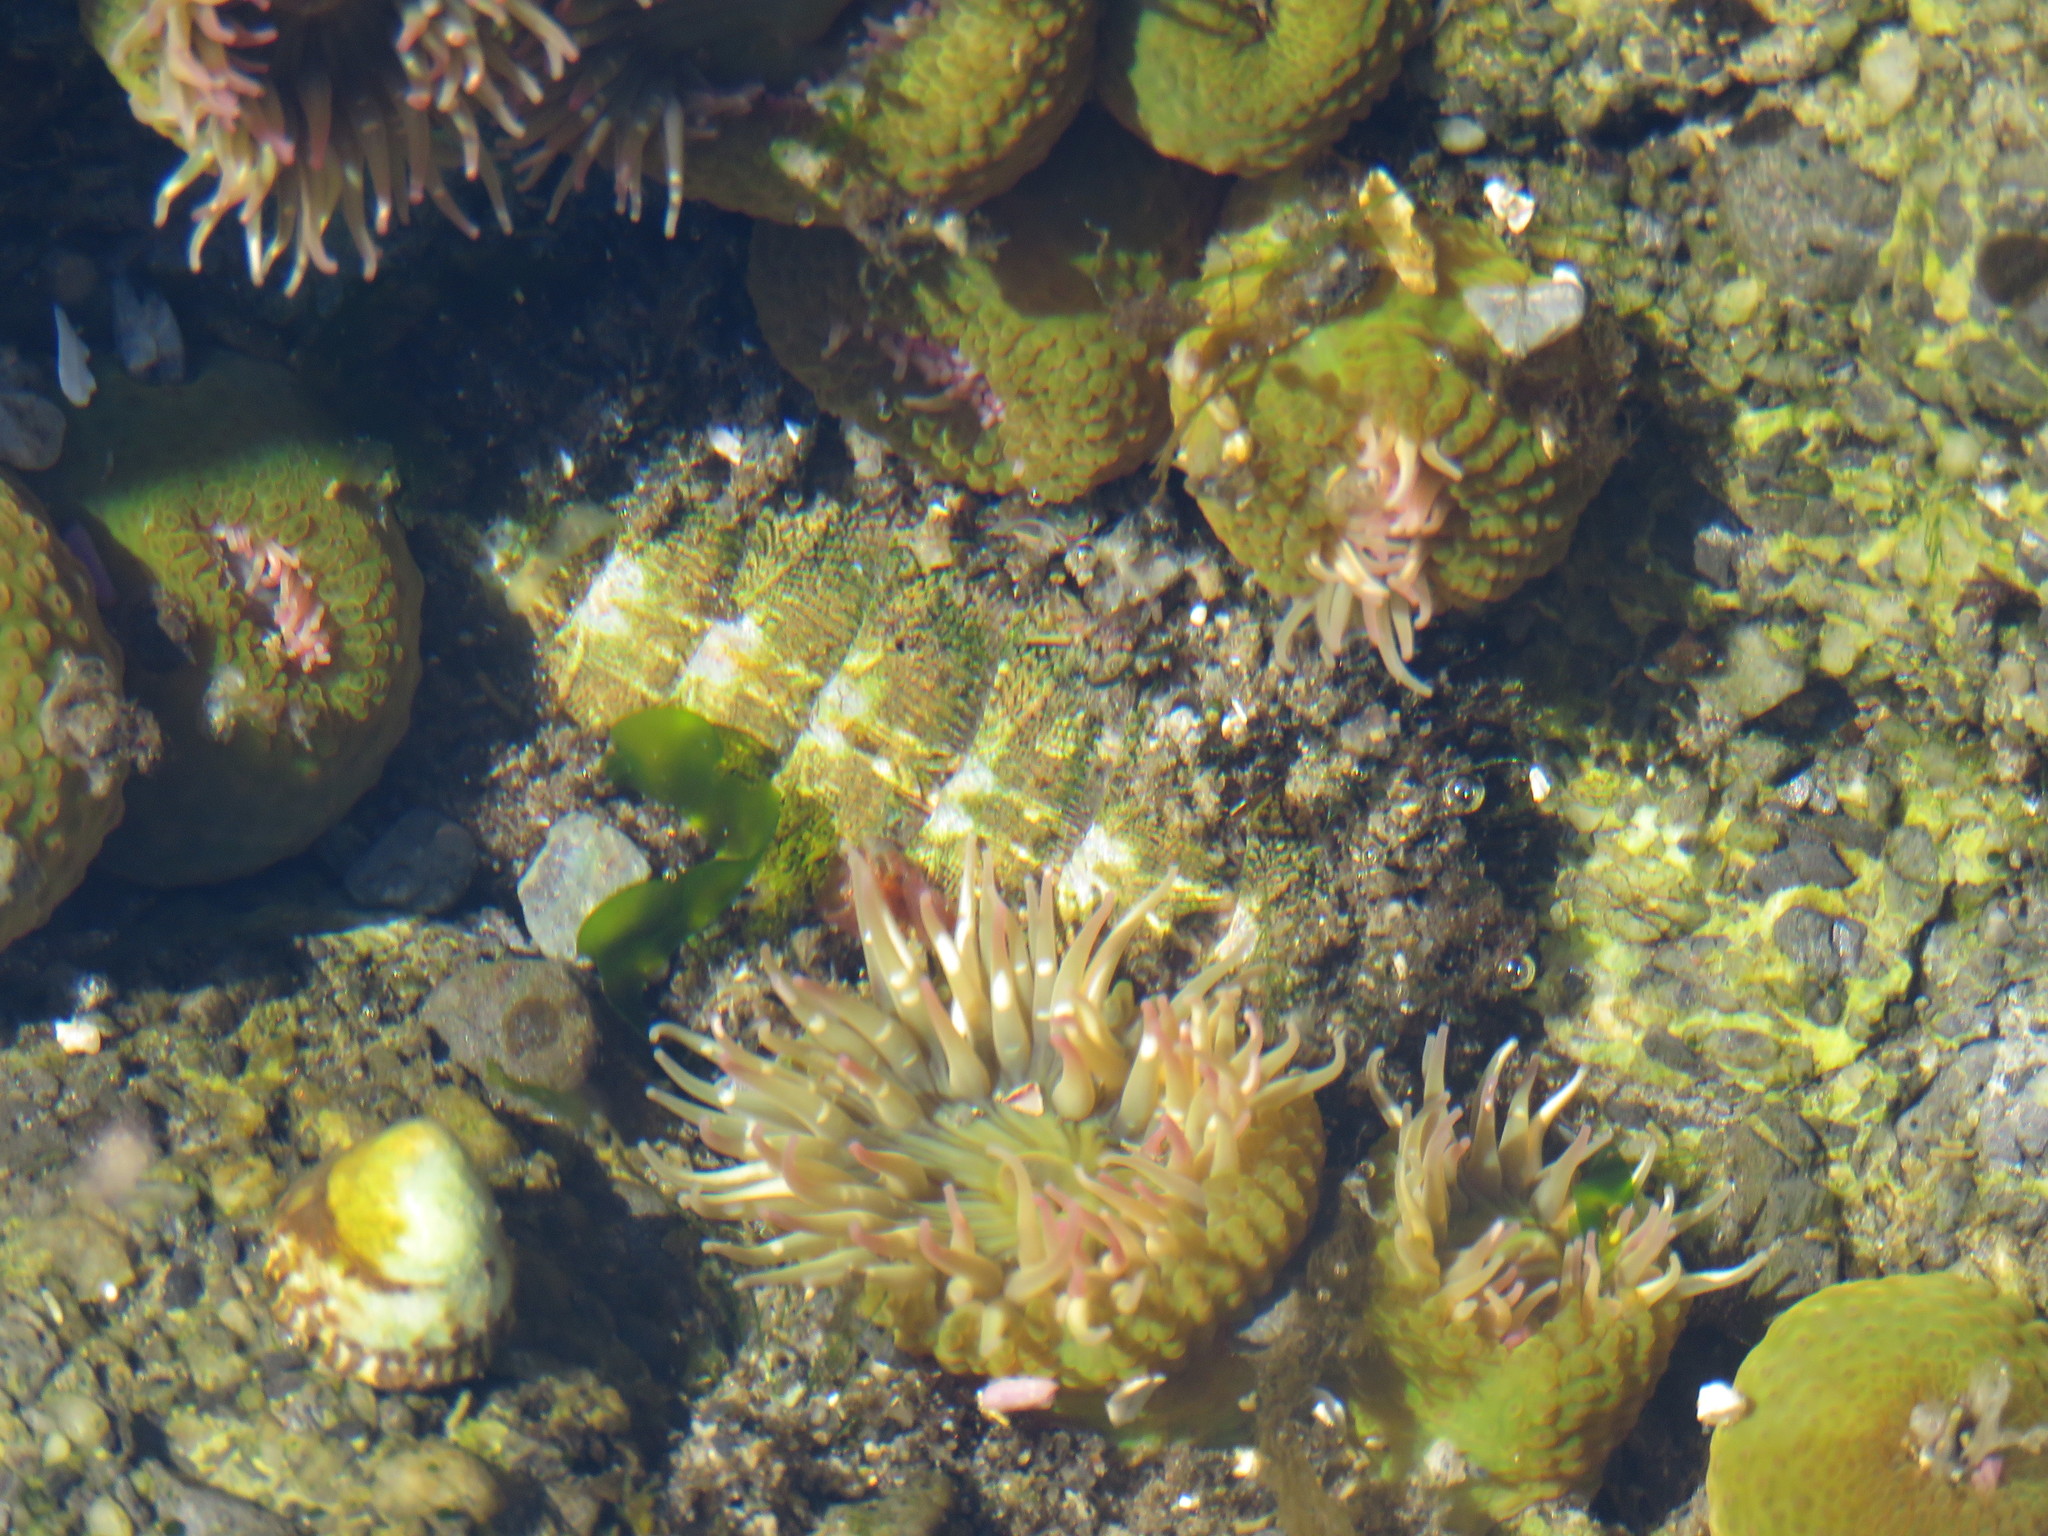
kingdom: Animalia
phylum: Cnidaria
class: Anthozoa
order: Actiniaria
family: Actiniidae
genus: Anthopleura
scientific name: Anthopleura elegantissima
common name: Clonal anemone
